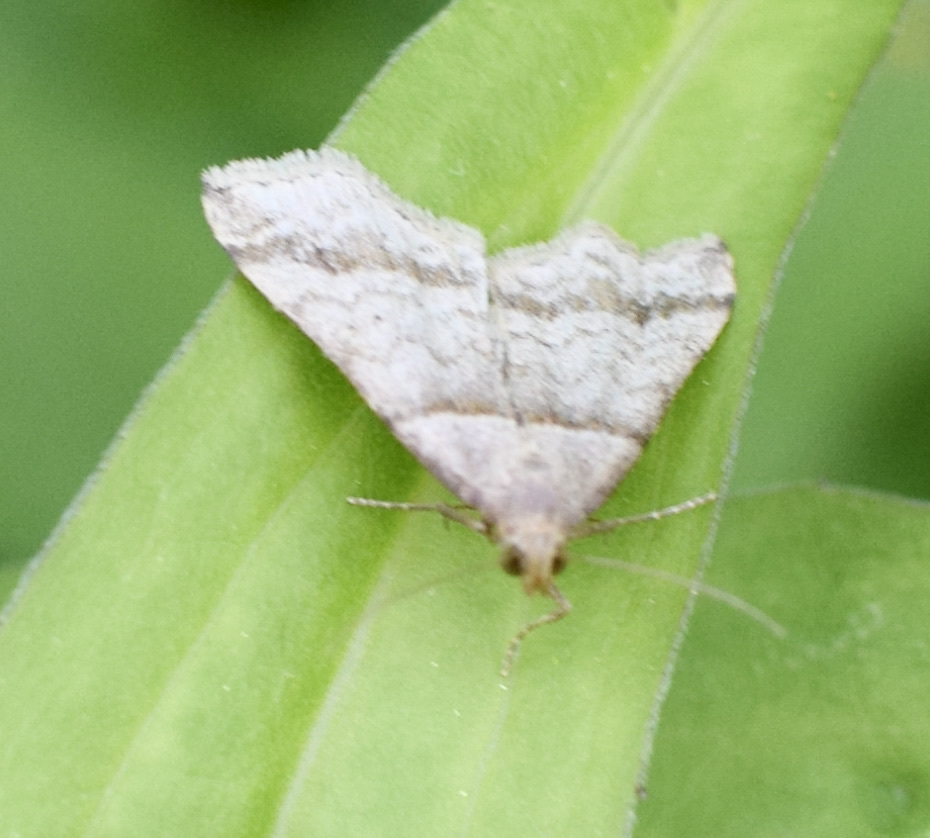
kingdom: Animalia
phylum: Arthropoda
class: Insecta
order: Lepidoptera
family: Erebidae
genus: Phaeolita
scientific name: Phaeolita pyramusalis
